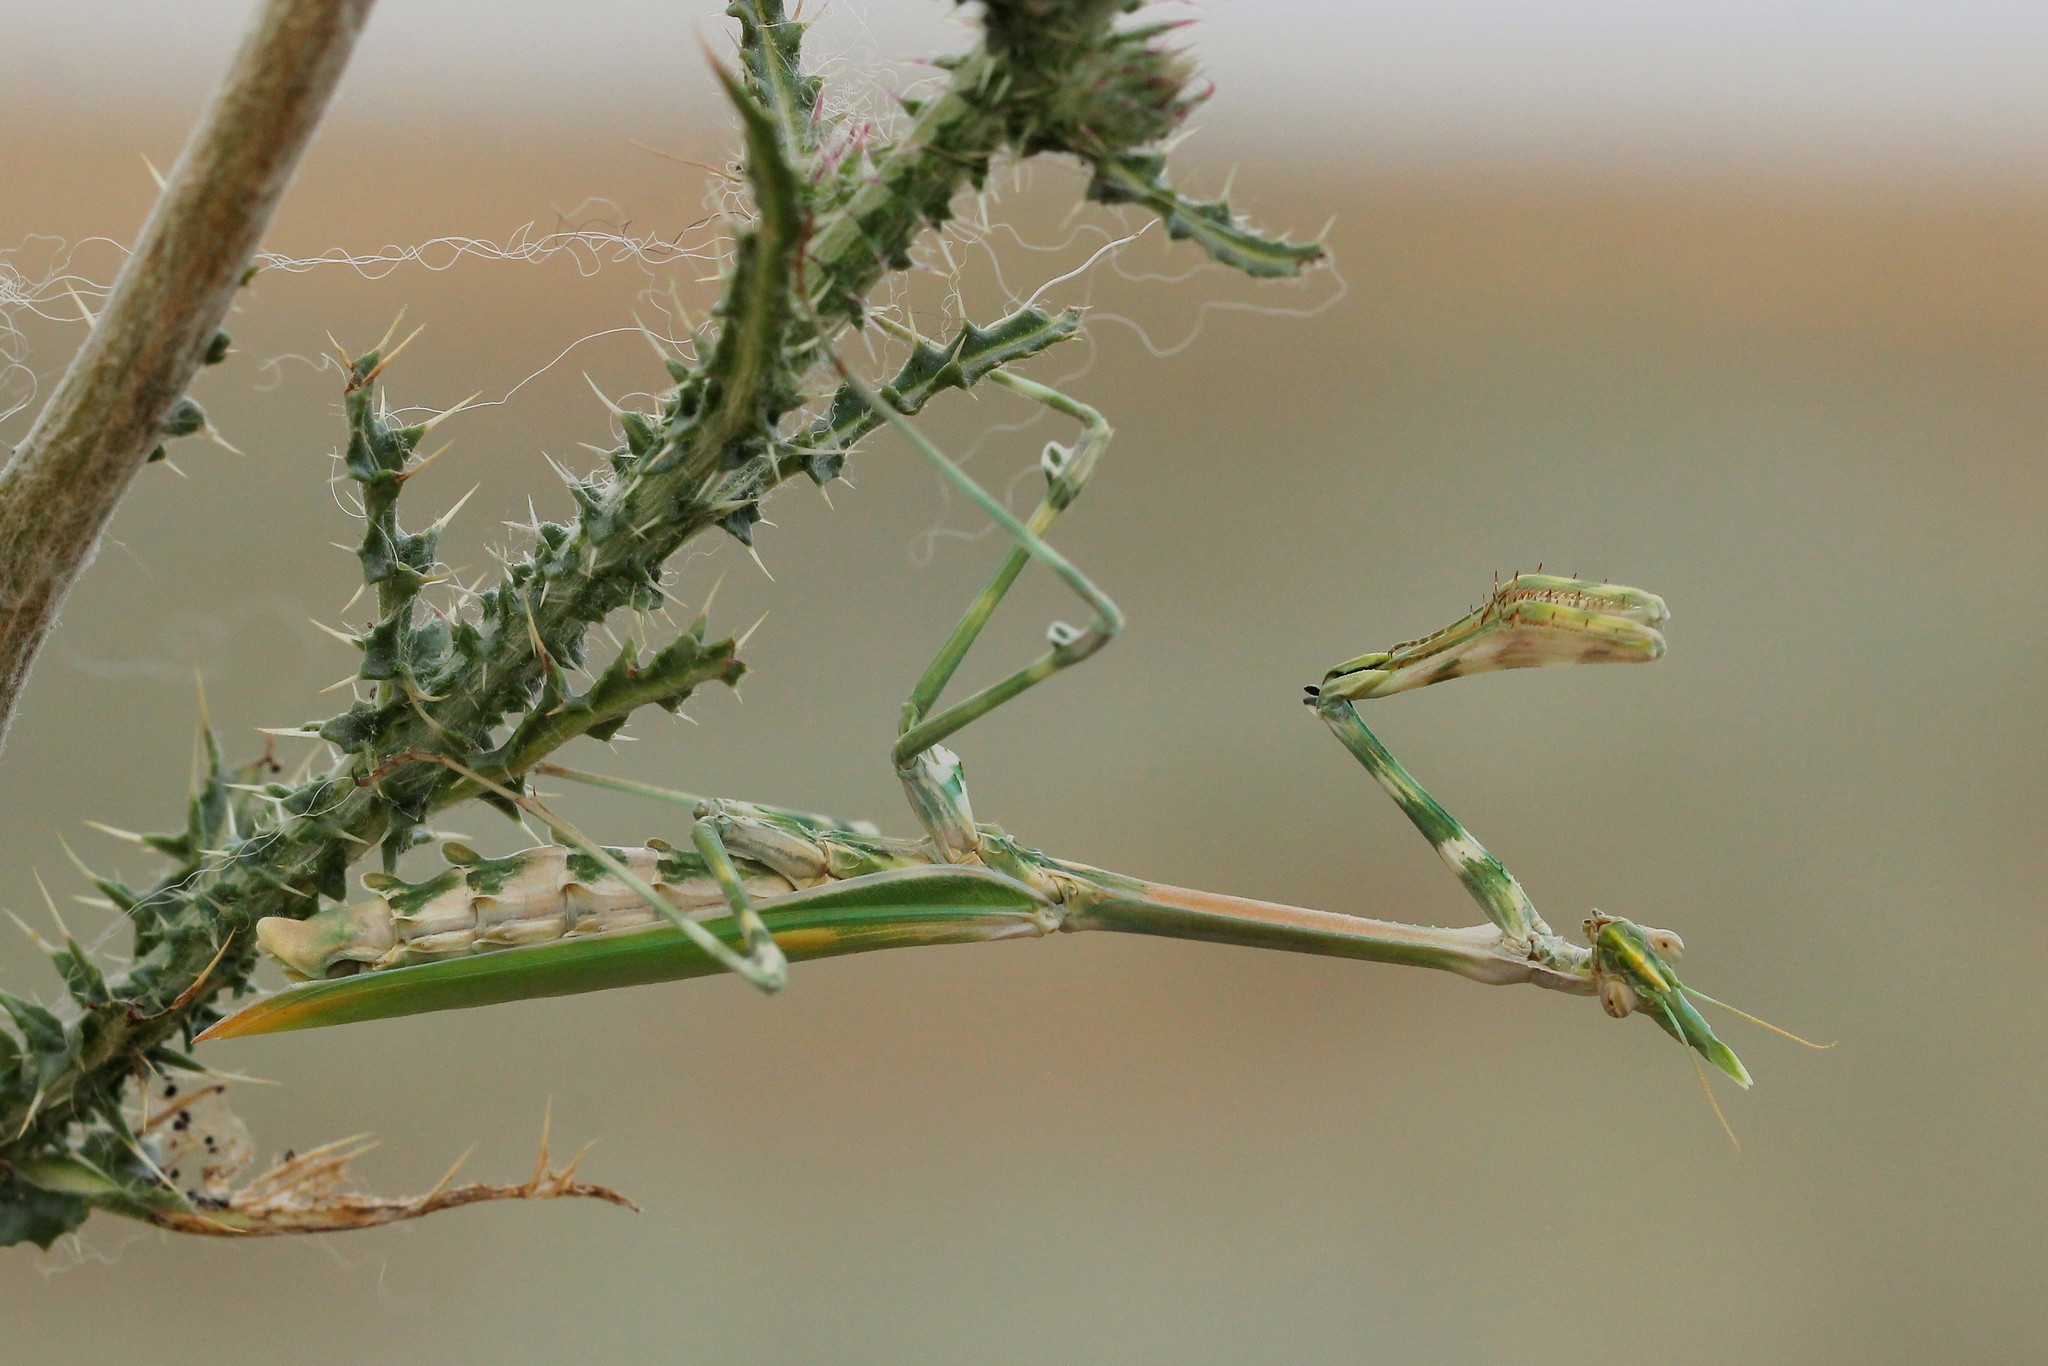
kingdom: Animalia
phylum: Arthropoda
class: Insecta
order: Mantodea
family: Empusidae
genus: Empusa
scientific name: Empusa pennicornis
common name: Conehead mantis
